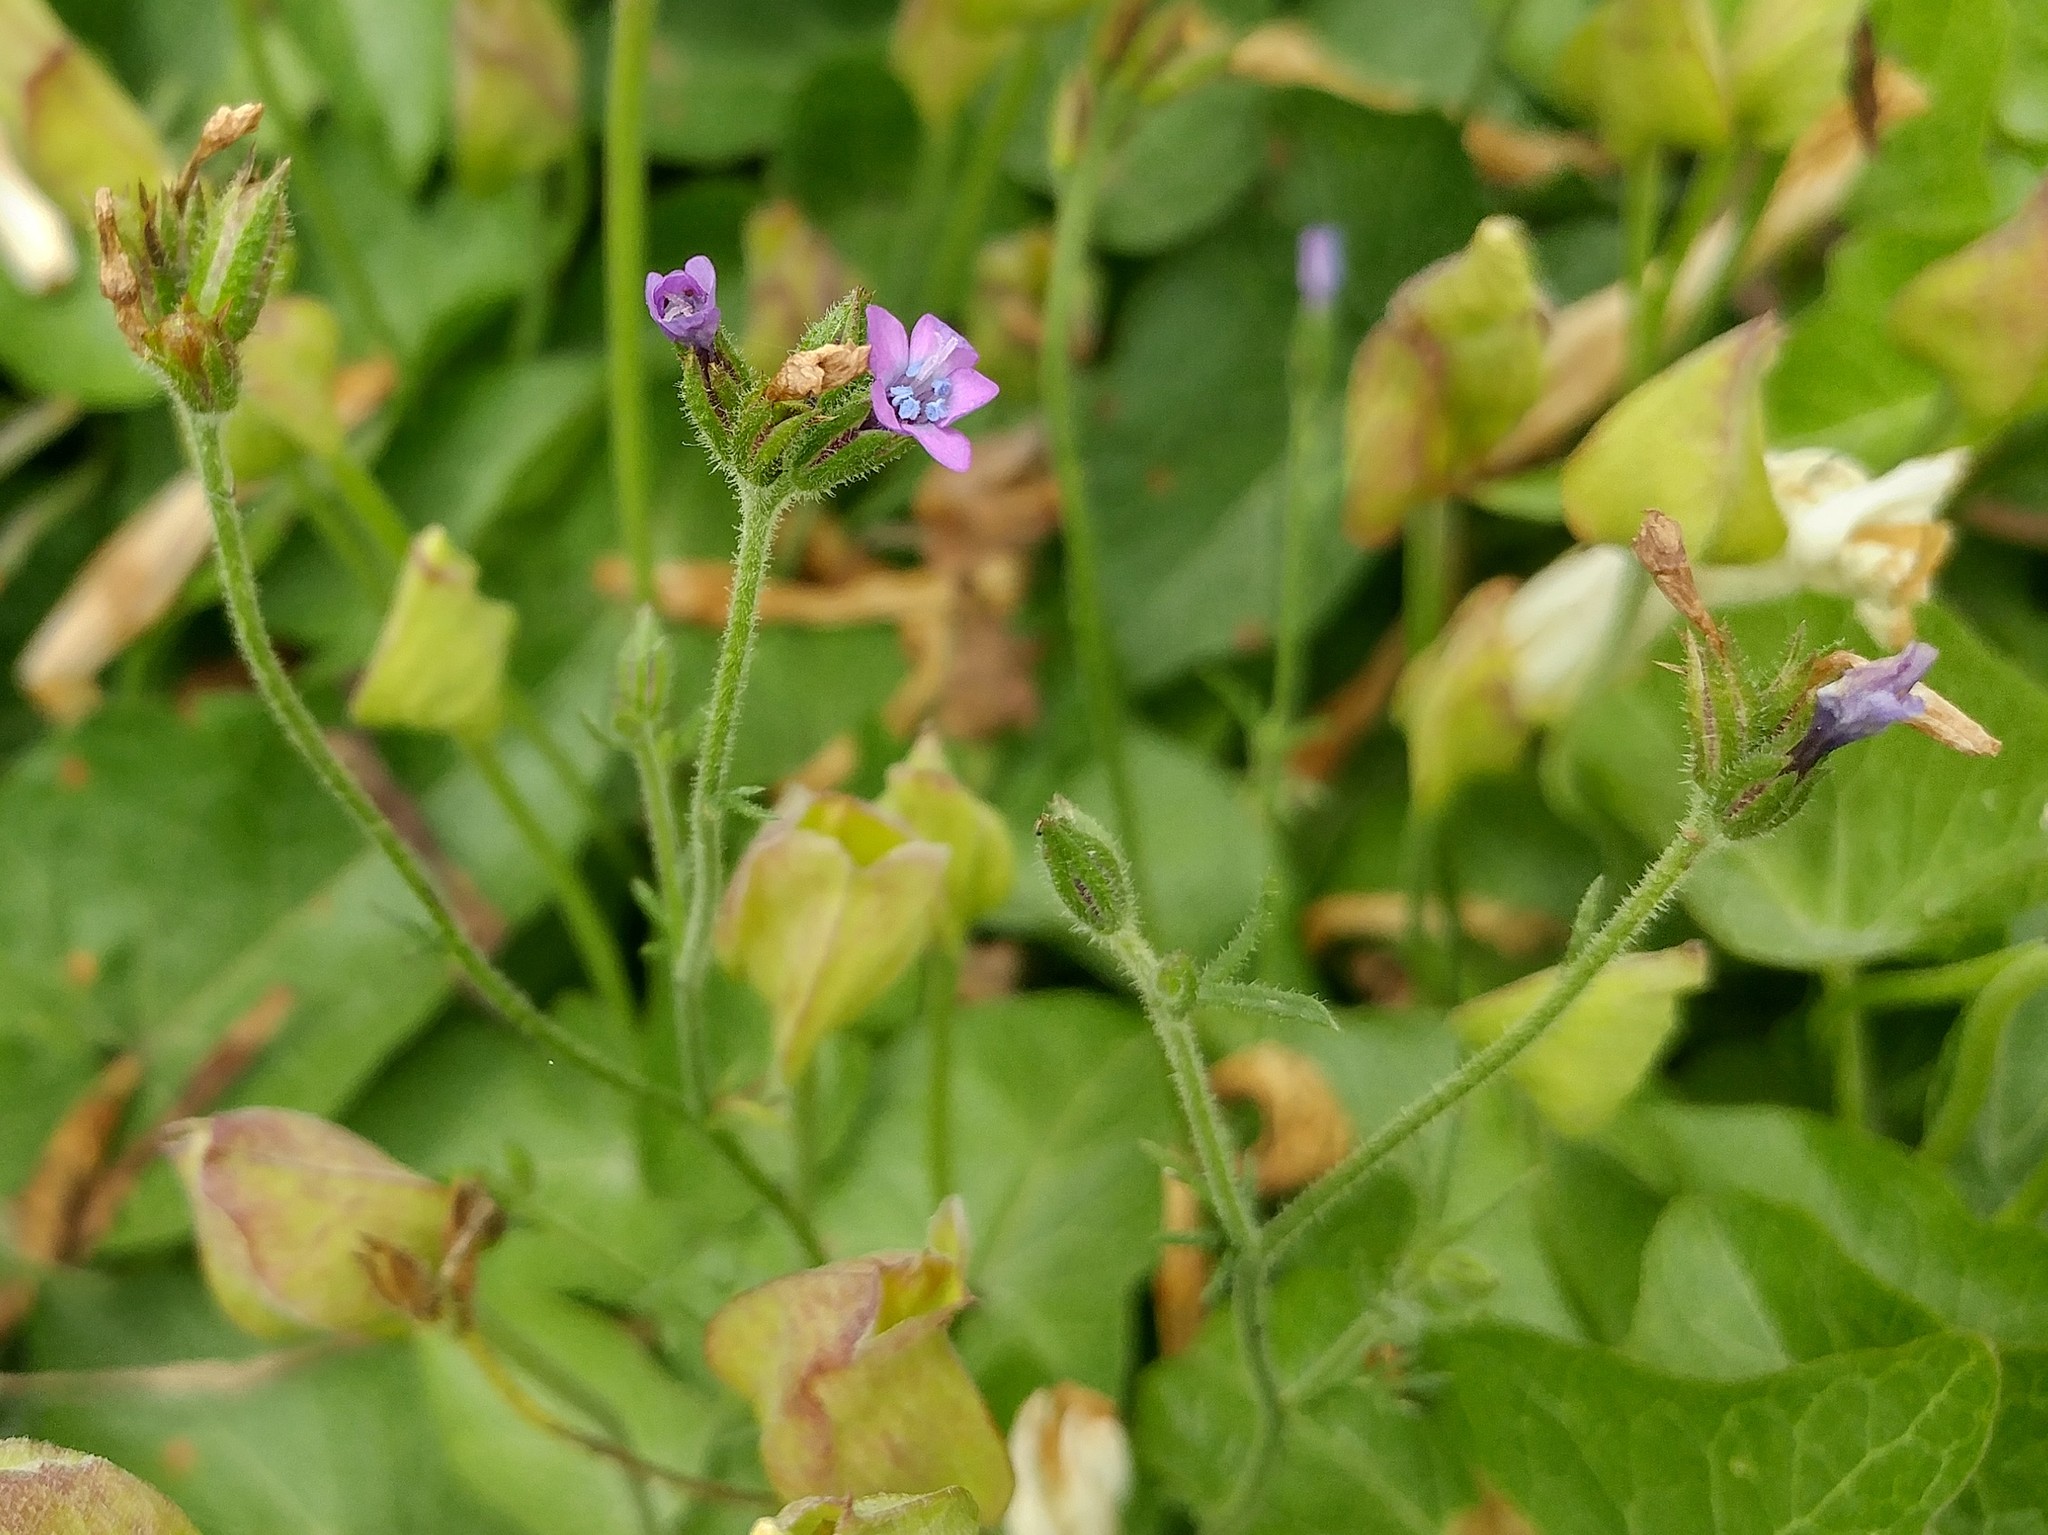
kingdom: Plantae
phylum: Tracheophyta
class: Magnoliopsida
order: Ericales
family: Polemoniaceae
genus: Gilia
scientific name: Gilia nevinii
